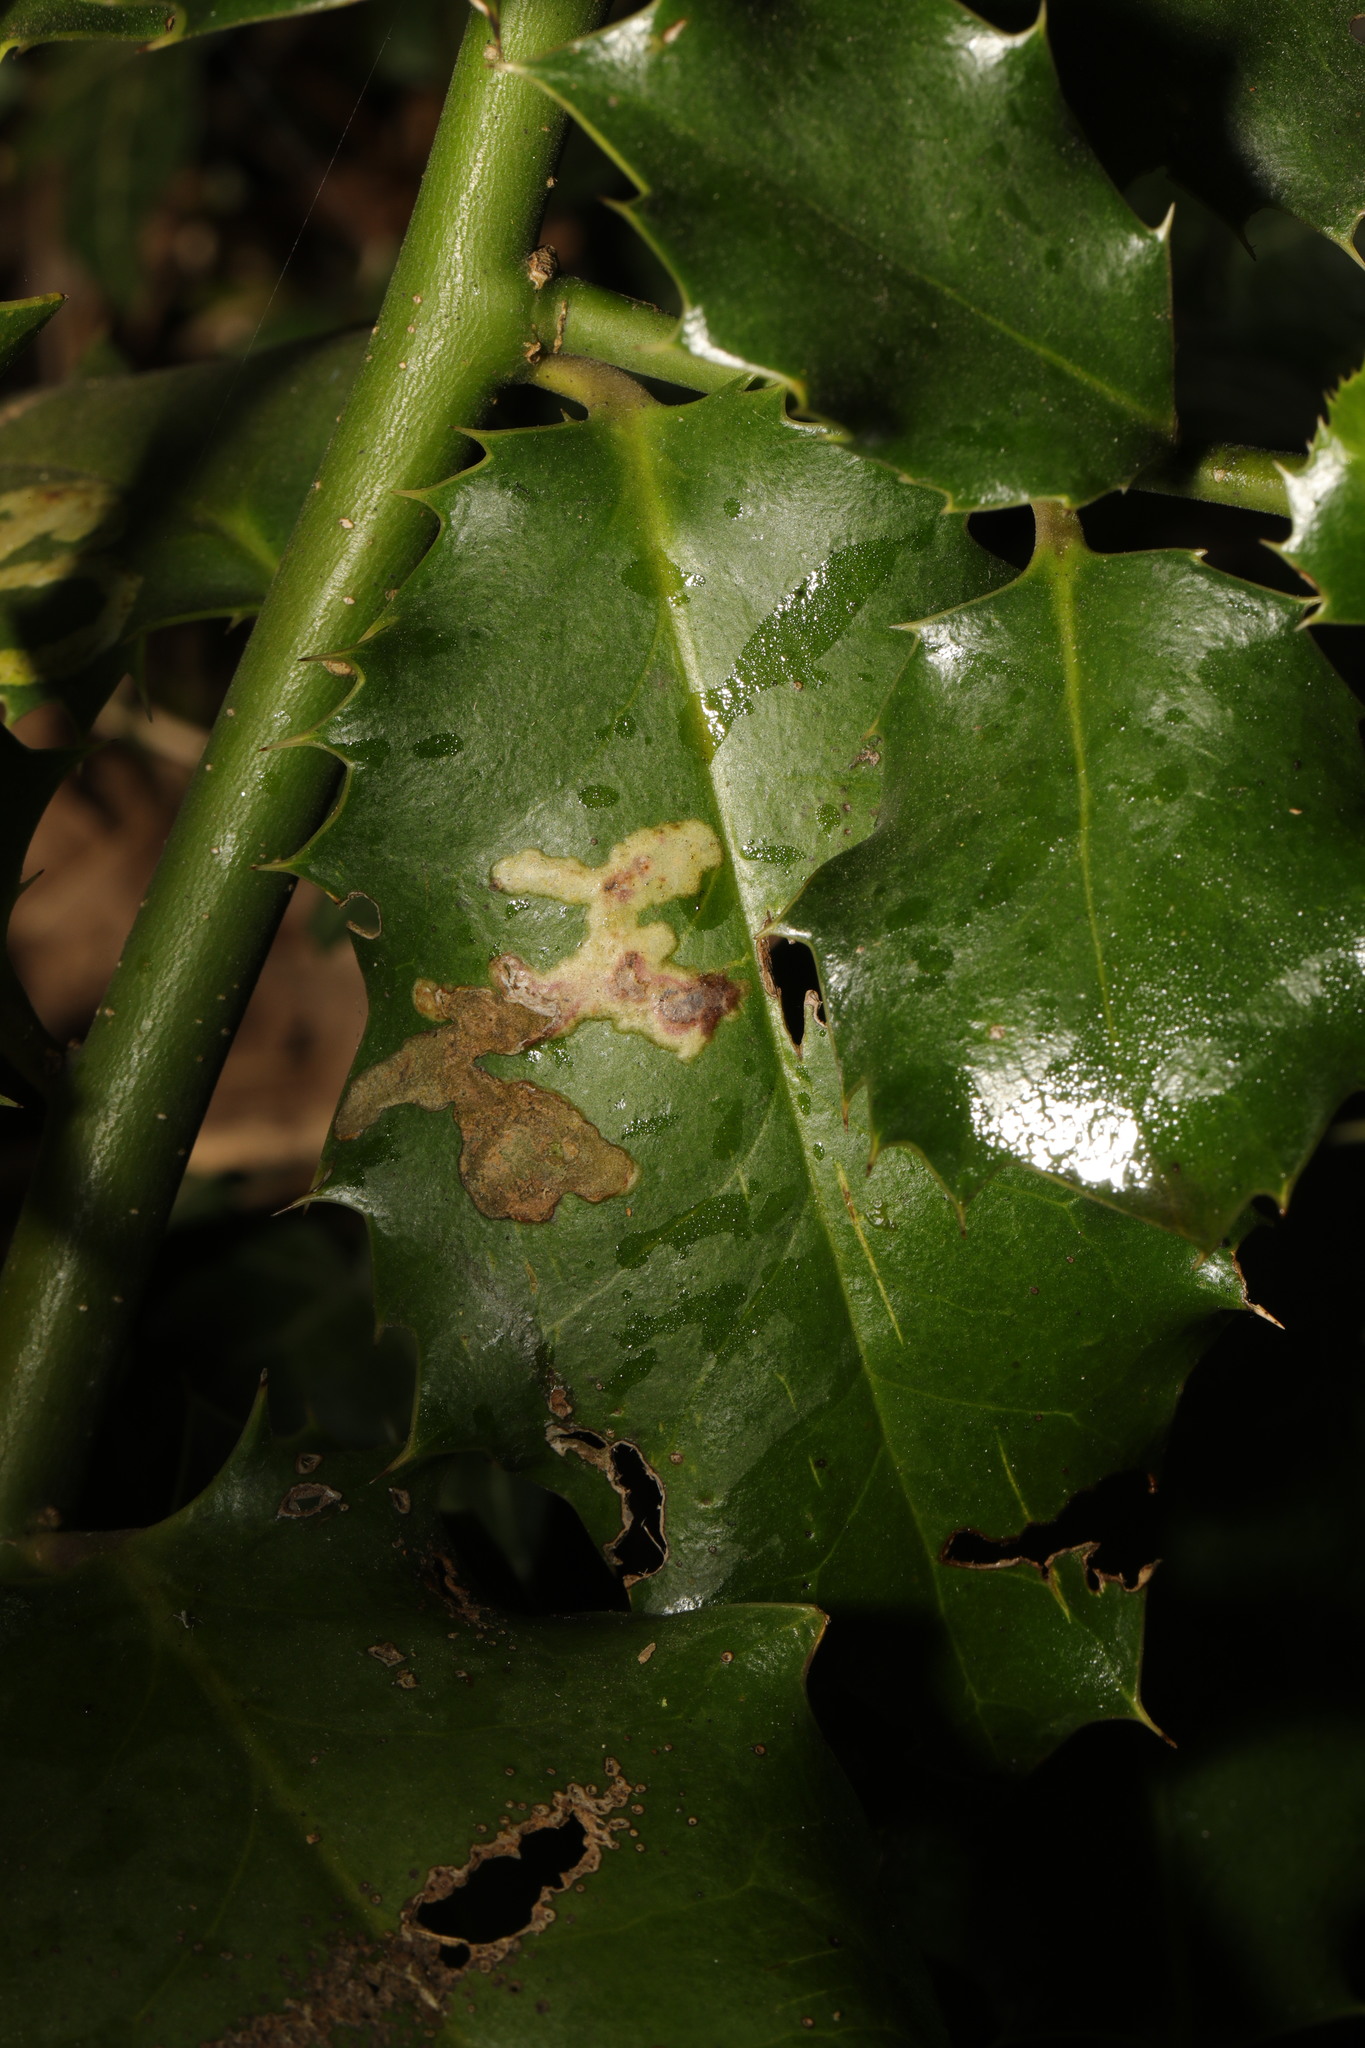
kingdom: Animalia
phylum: Arthropoda
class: Insecta
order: Diptera
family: Agromyzidae
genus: Phytomyza
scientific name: Phytomyza ilicis
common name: Holly leafminer
